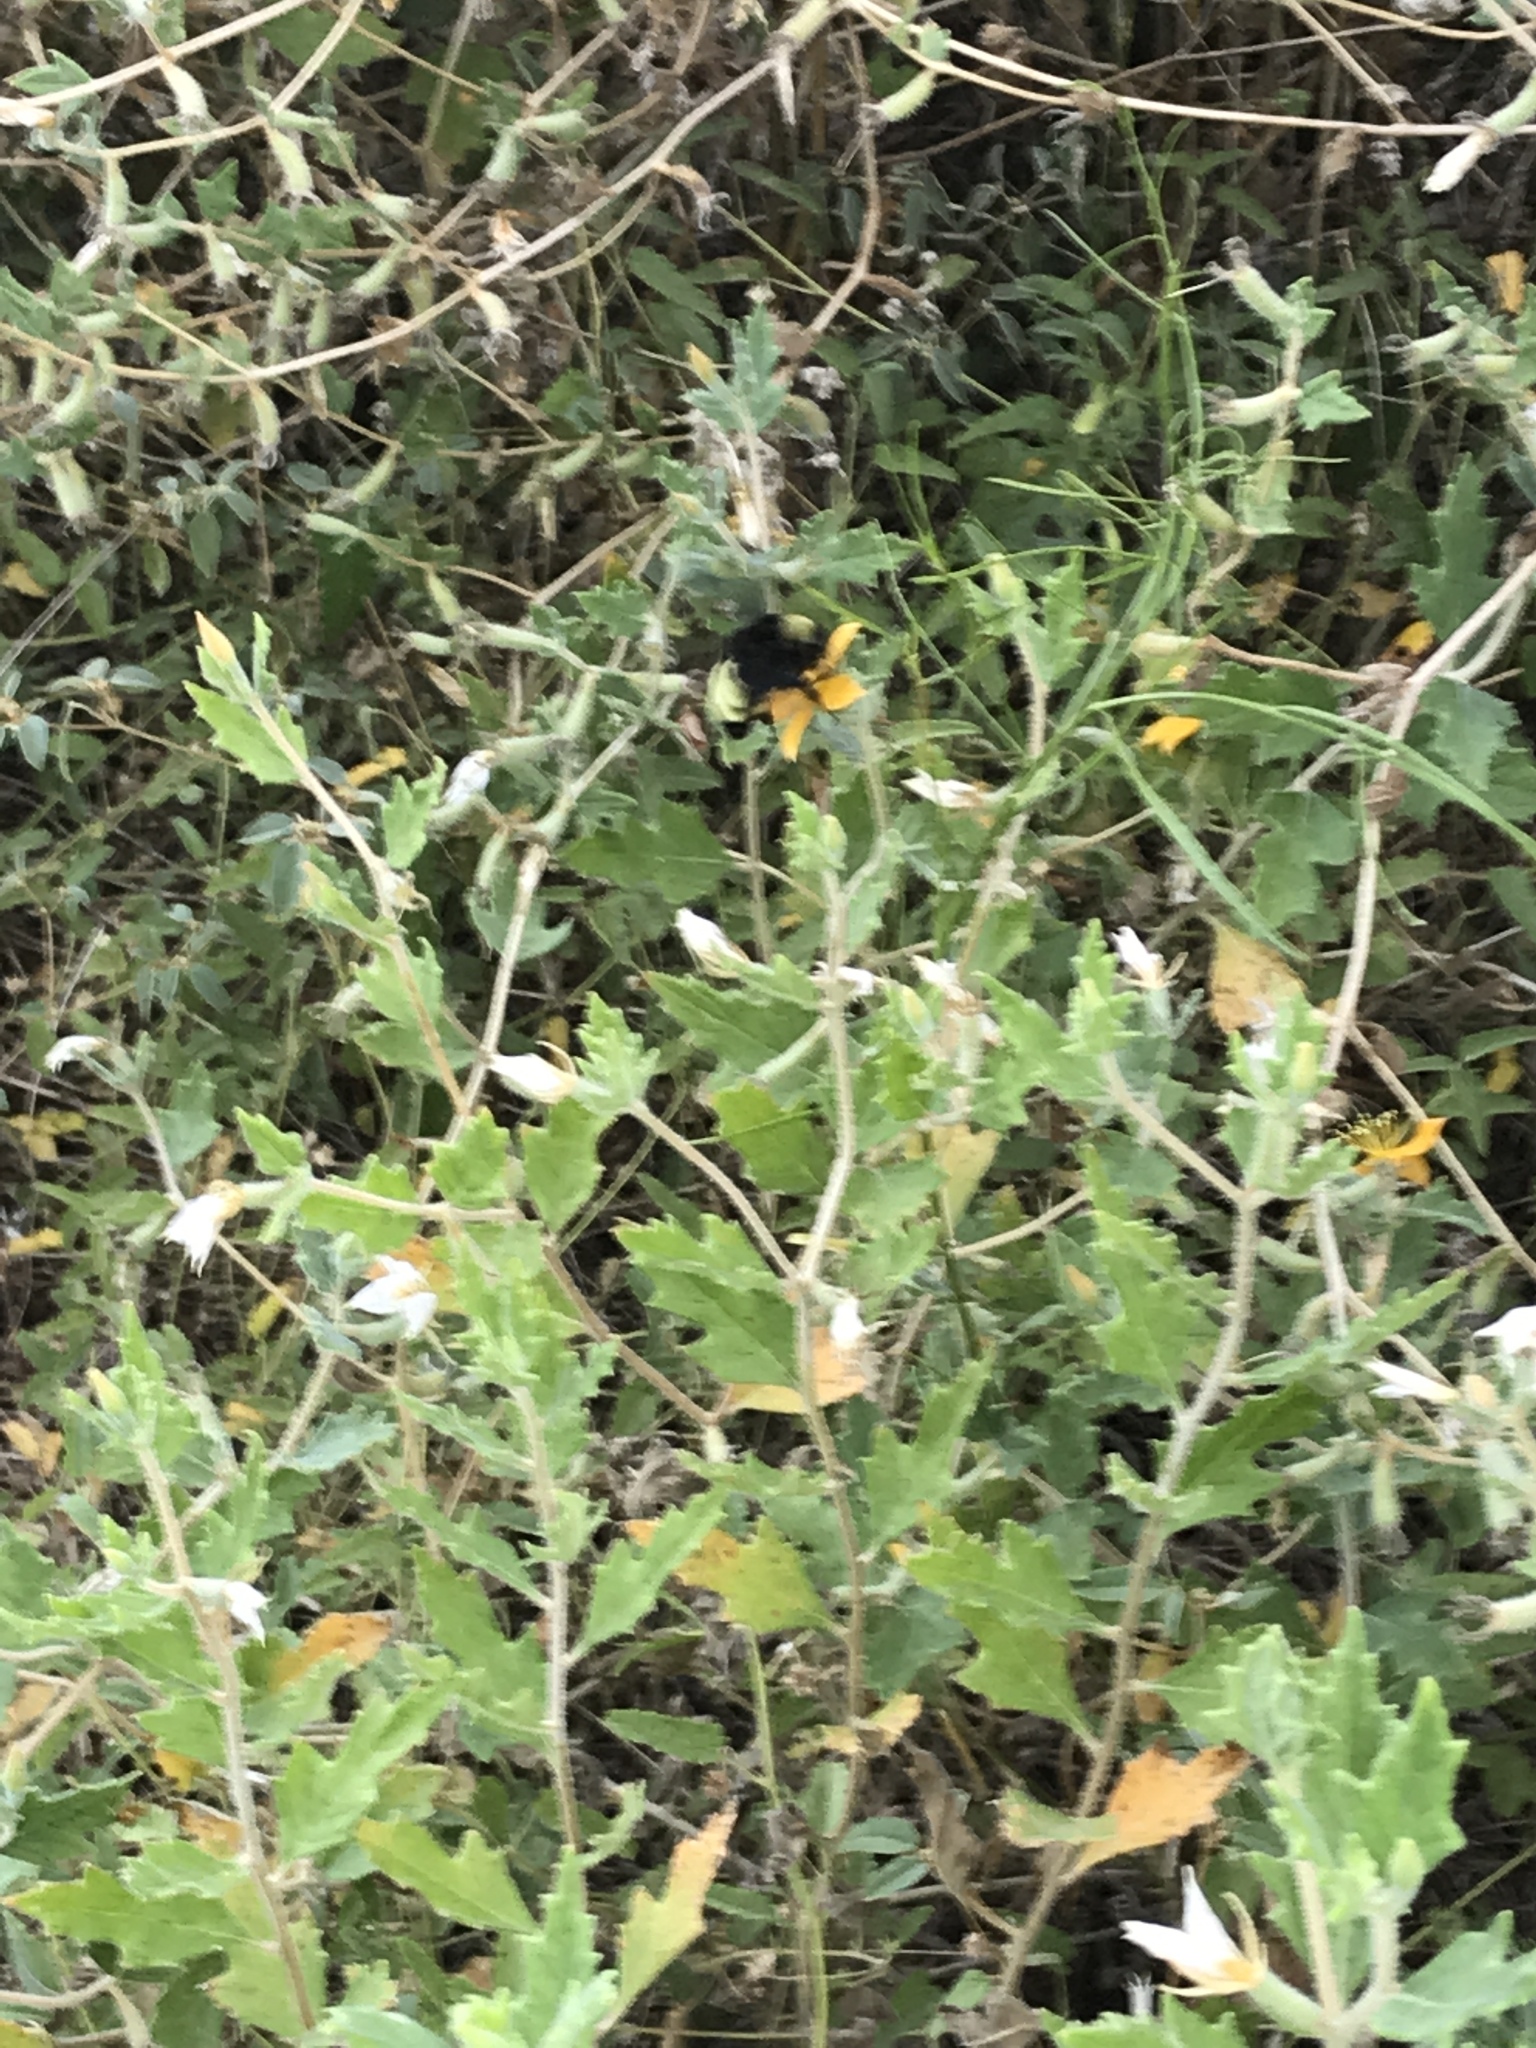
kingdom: Animalia
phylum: Arthropoda
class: Insecta
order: Hymenoptera
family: Apidae
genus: Bombus
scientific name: Bombus pensylvanicus
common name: Bumble bee
